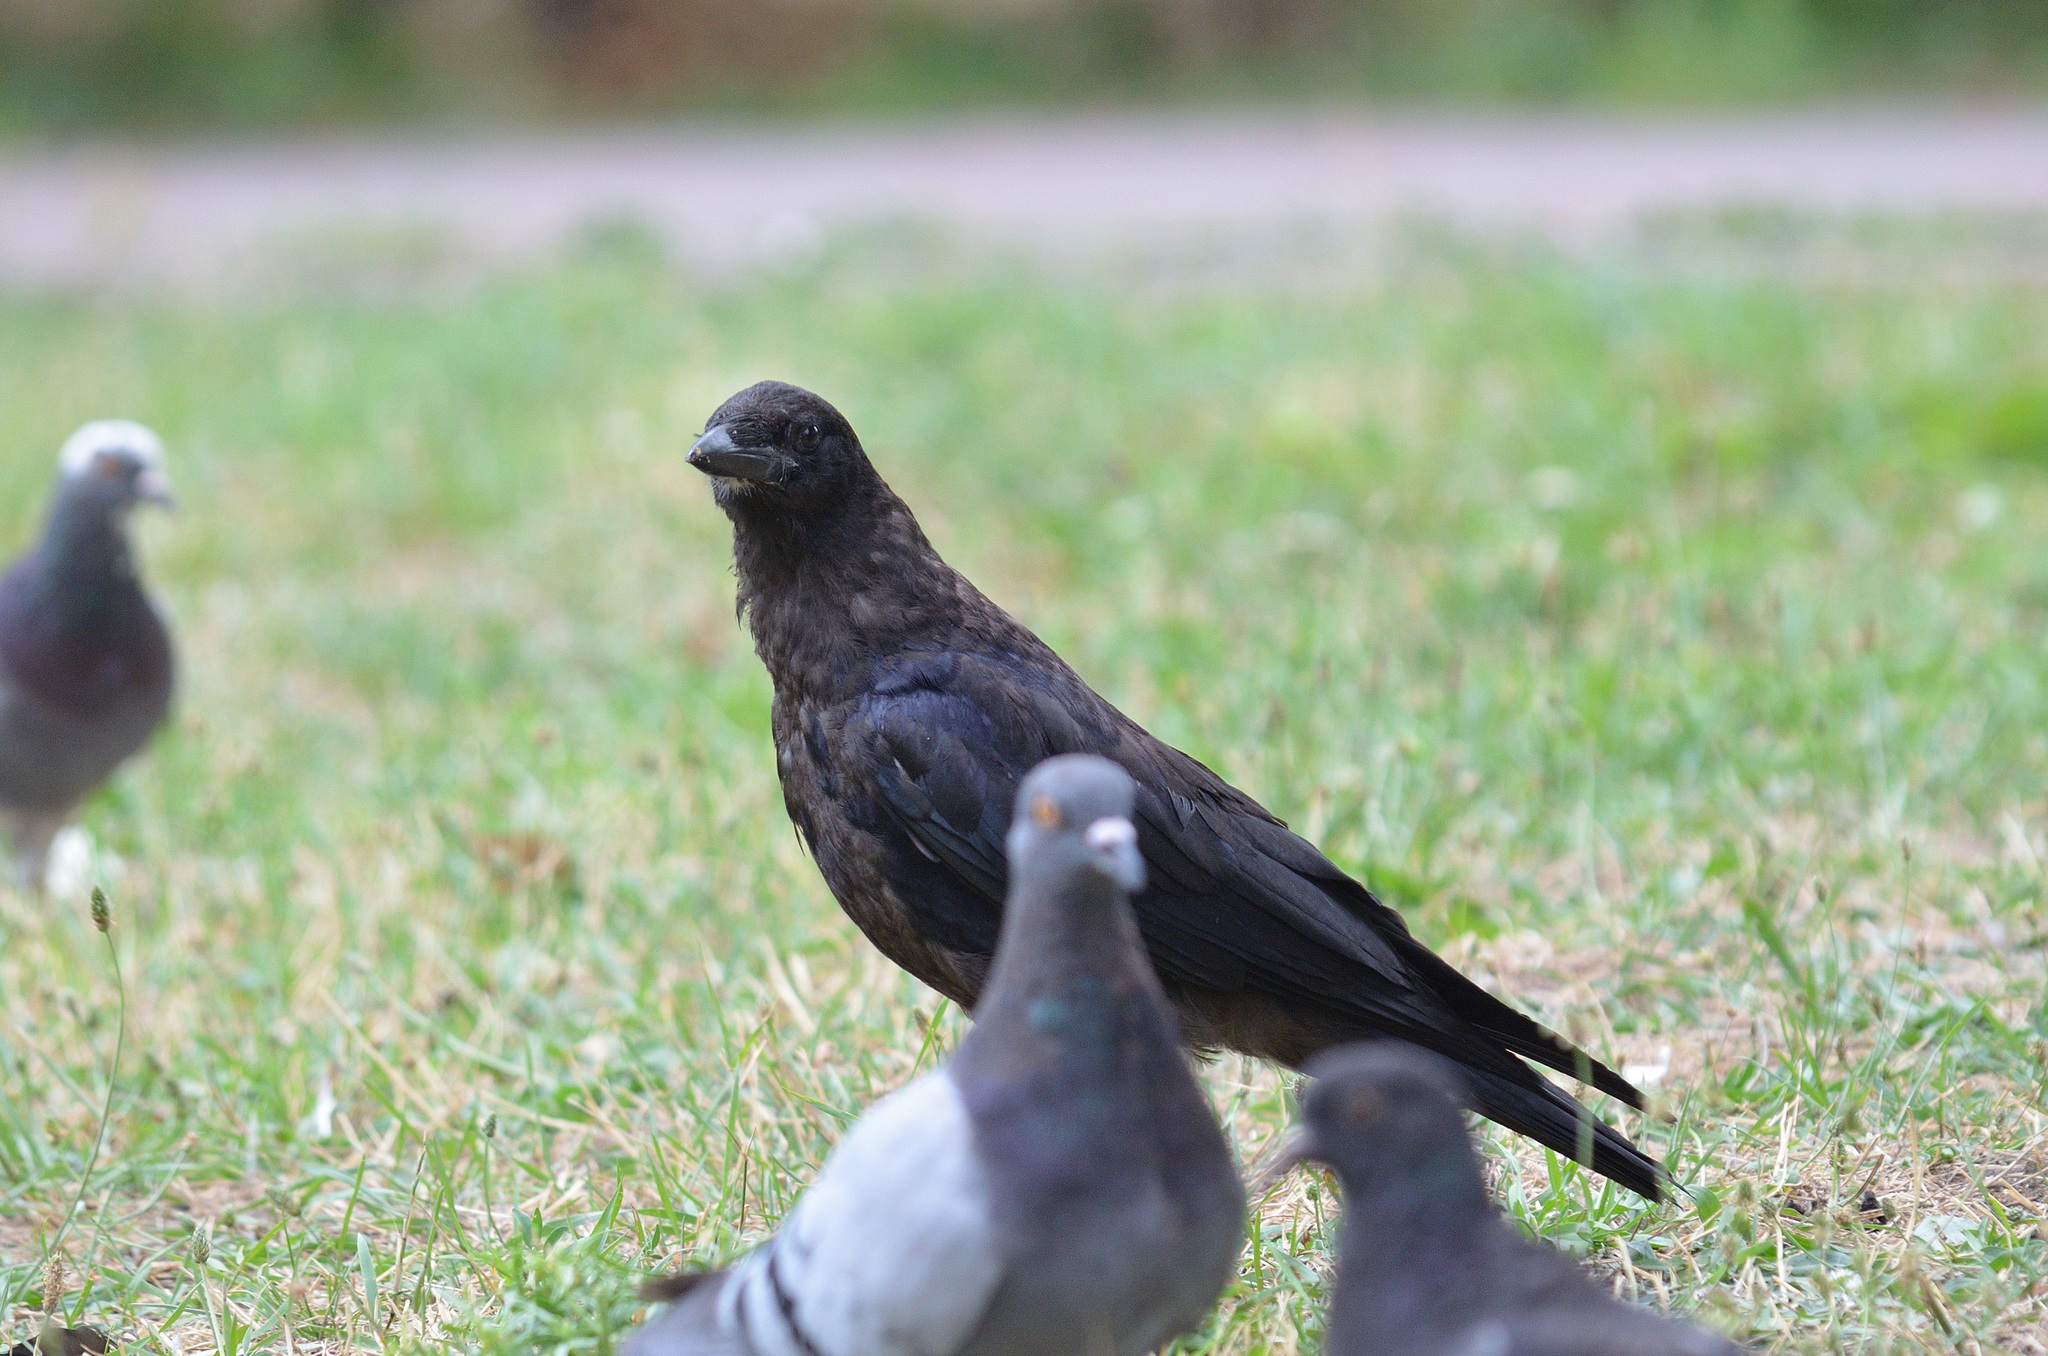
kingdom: Animalia
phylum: Chordata
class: Aves
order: Passeriformes
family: Corvidae
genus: Corvus
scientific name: Corvus frugilegus
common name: Rook
